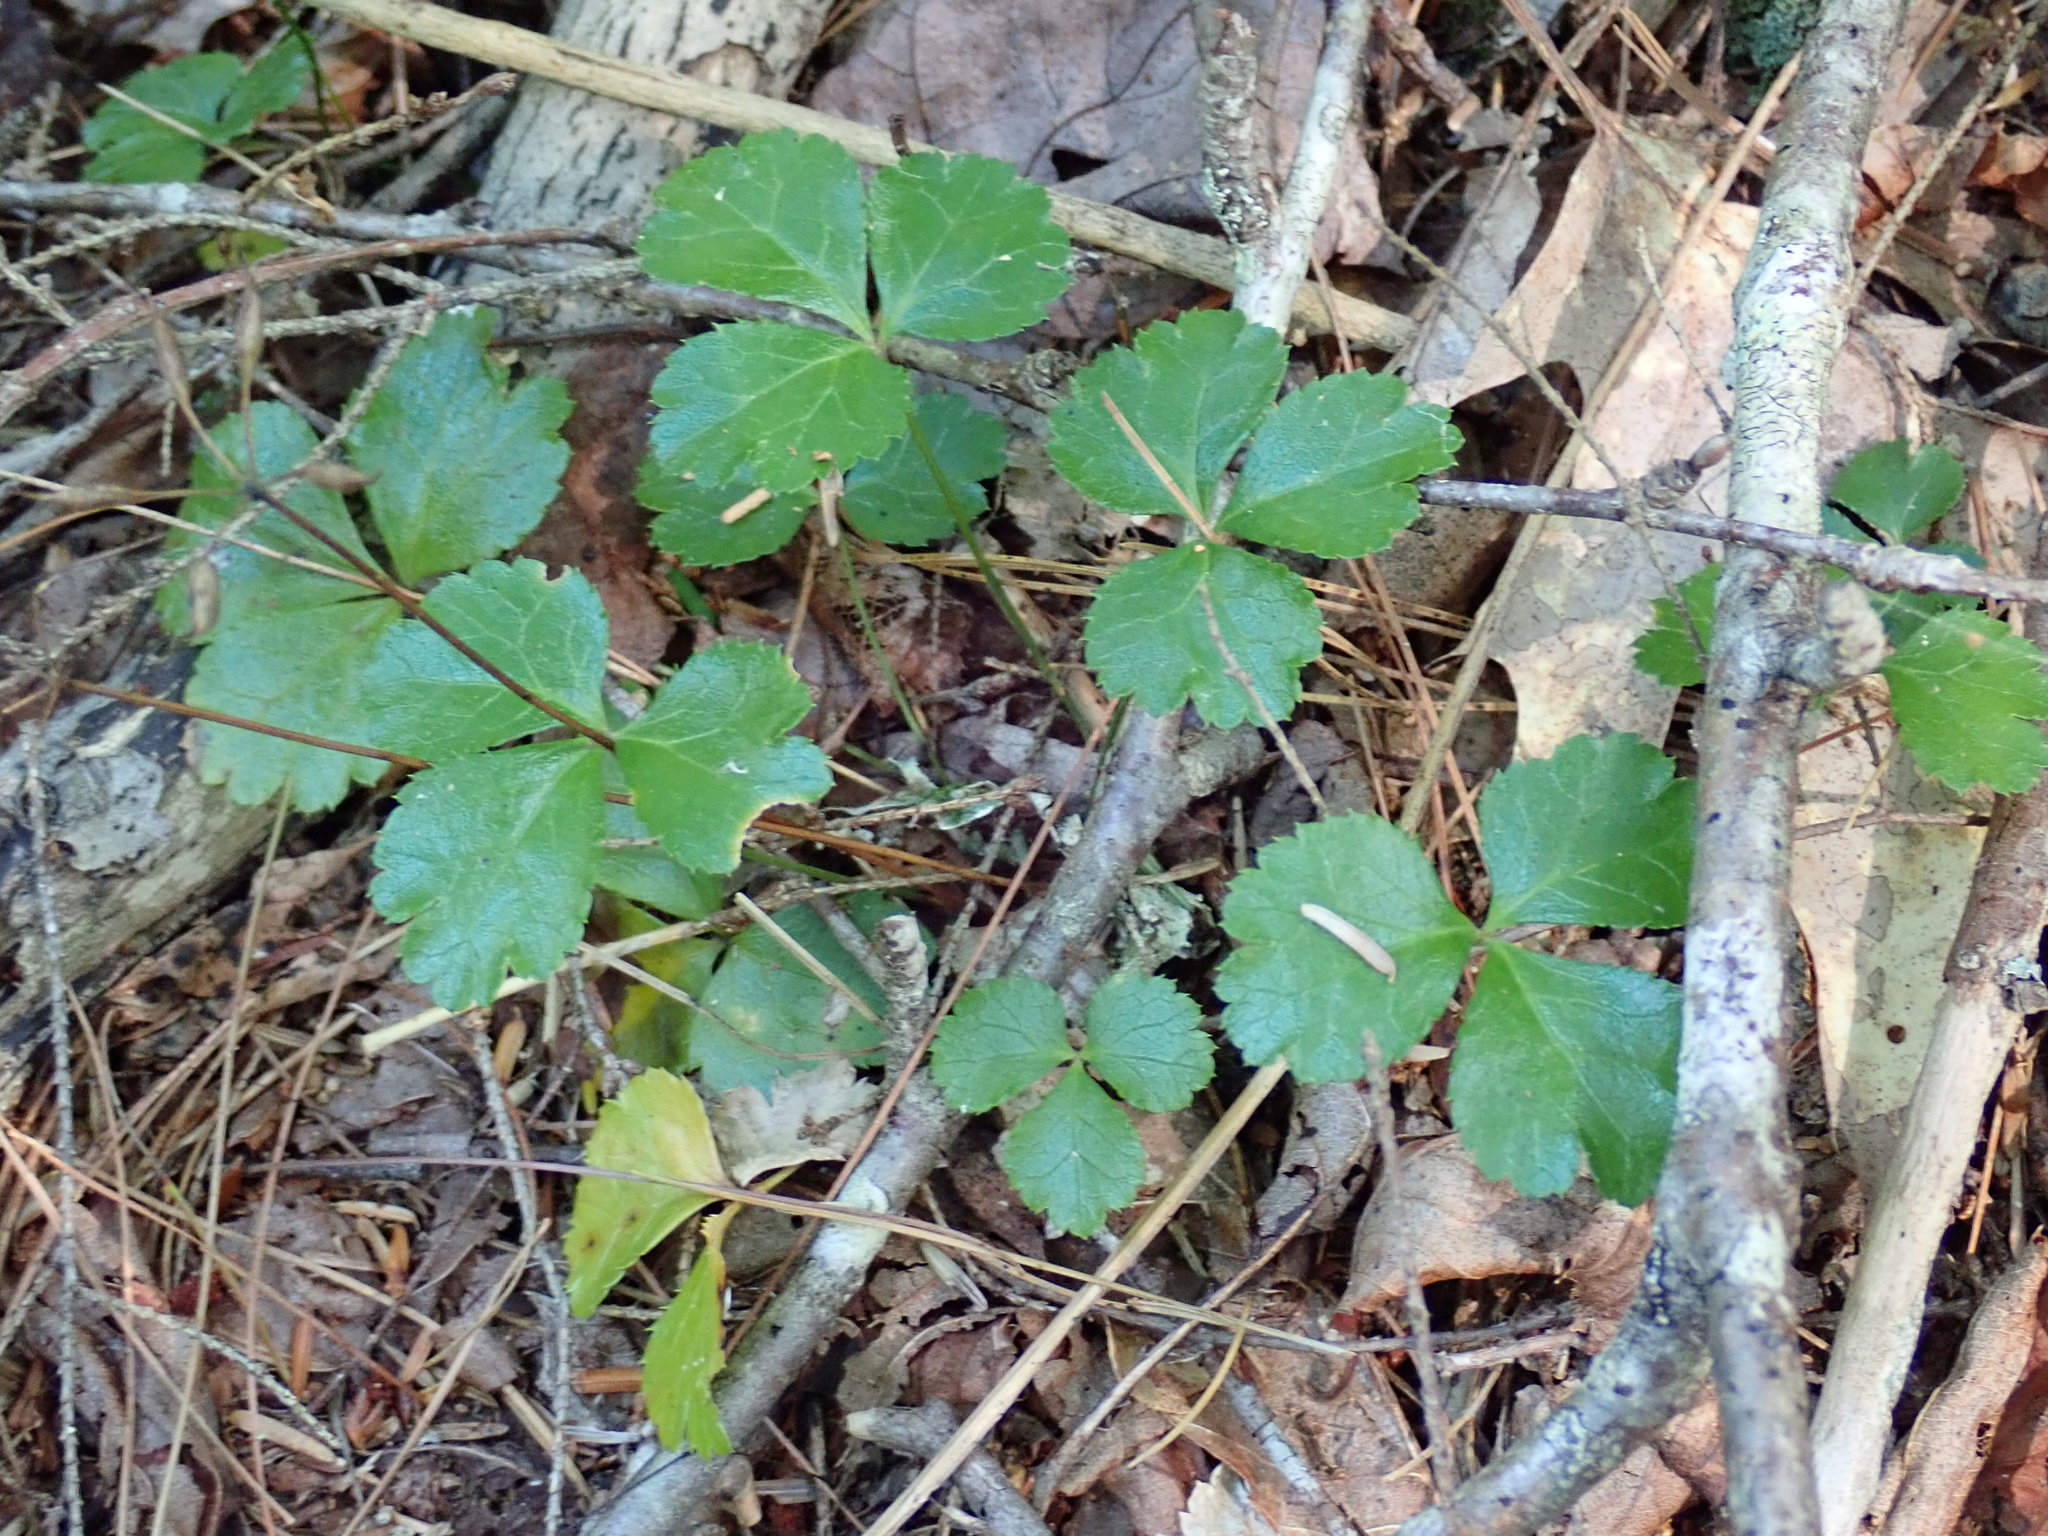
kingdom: Plantae
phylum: Tracheophyta
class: Magnoliopsida
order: Ranunculales
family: Ranunculaceae
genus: Coptis
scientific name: Coptis trifolia
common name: Canker-root
